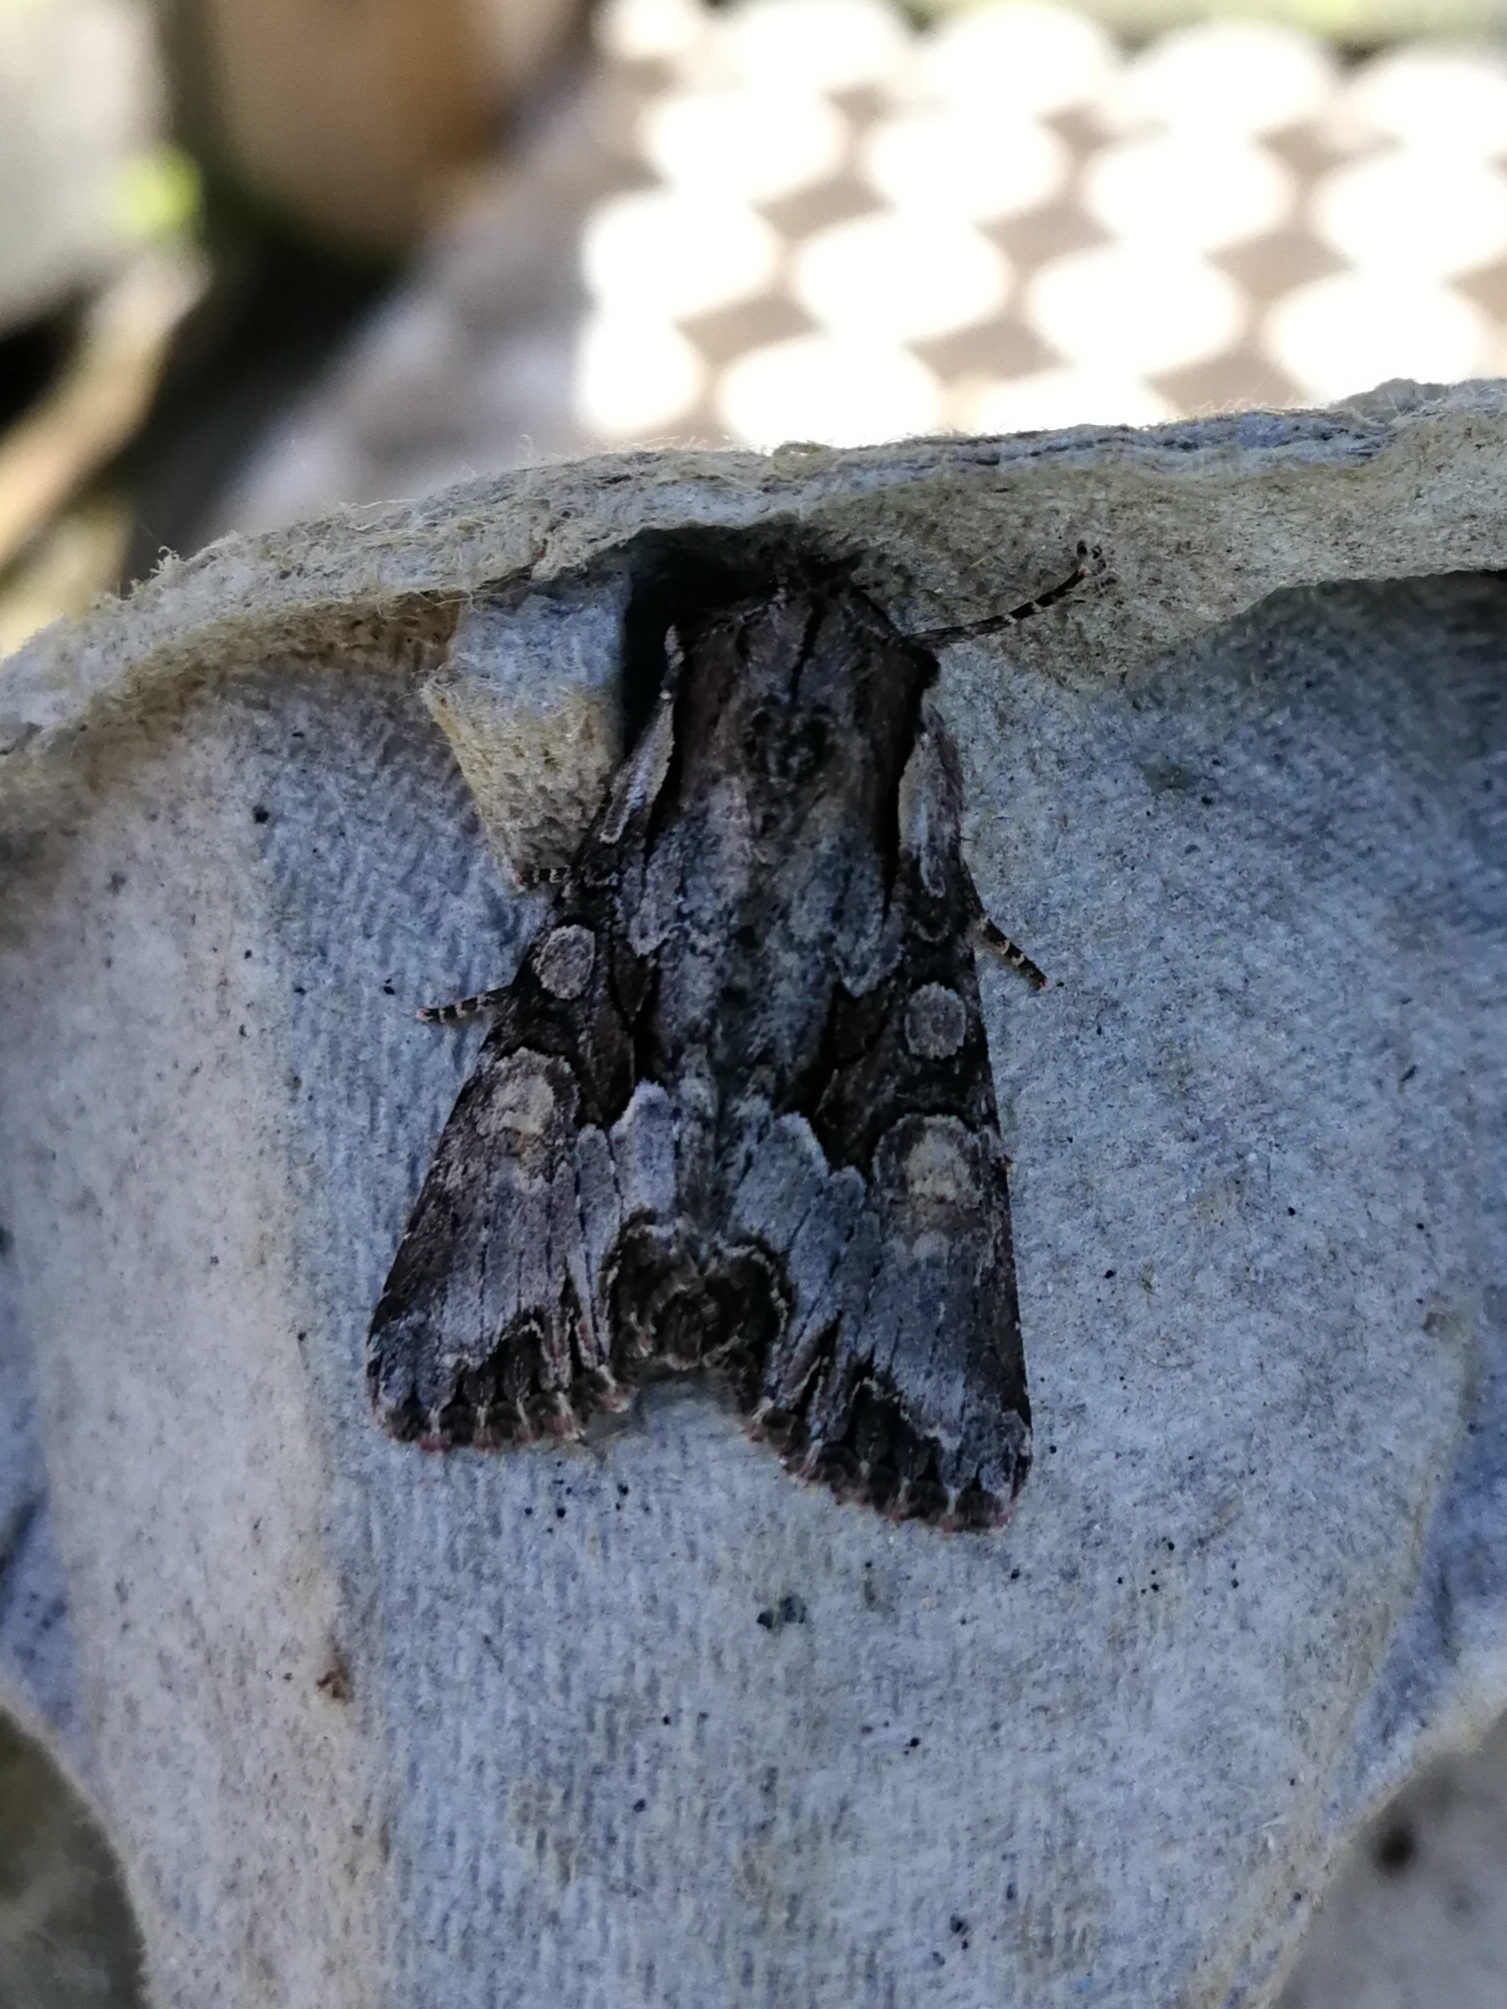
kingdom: Animalia
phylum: Arthropoda
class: Insecta
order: Lepidoptera
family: Noctuidae
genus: Lacanobia
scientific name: Lacanobia w-latinum
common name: Light brocade
